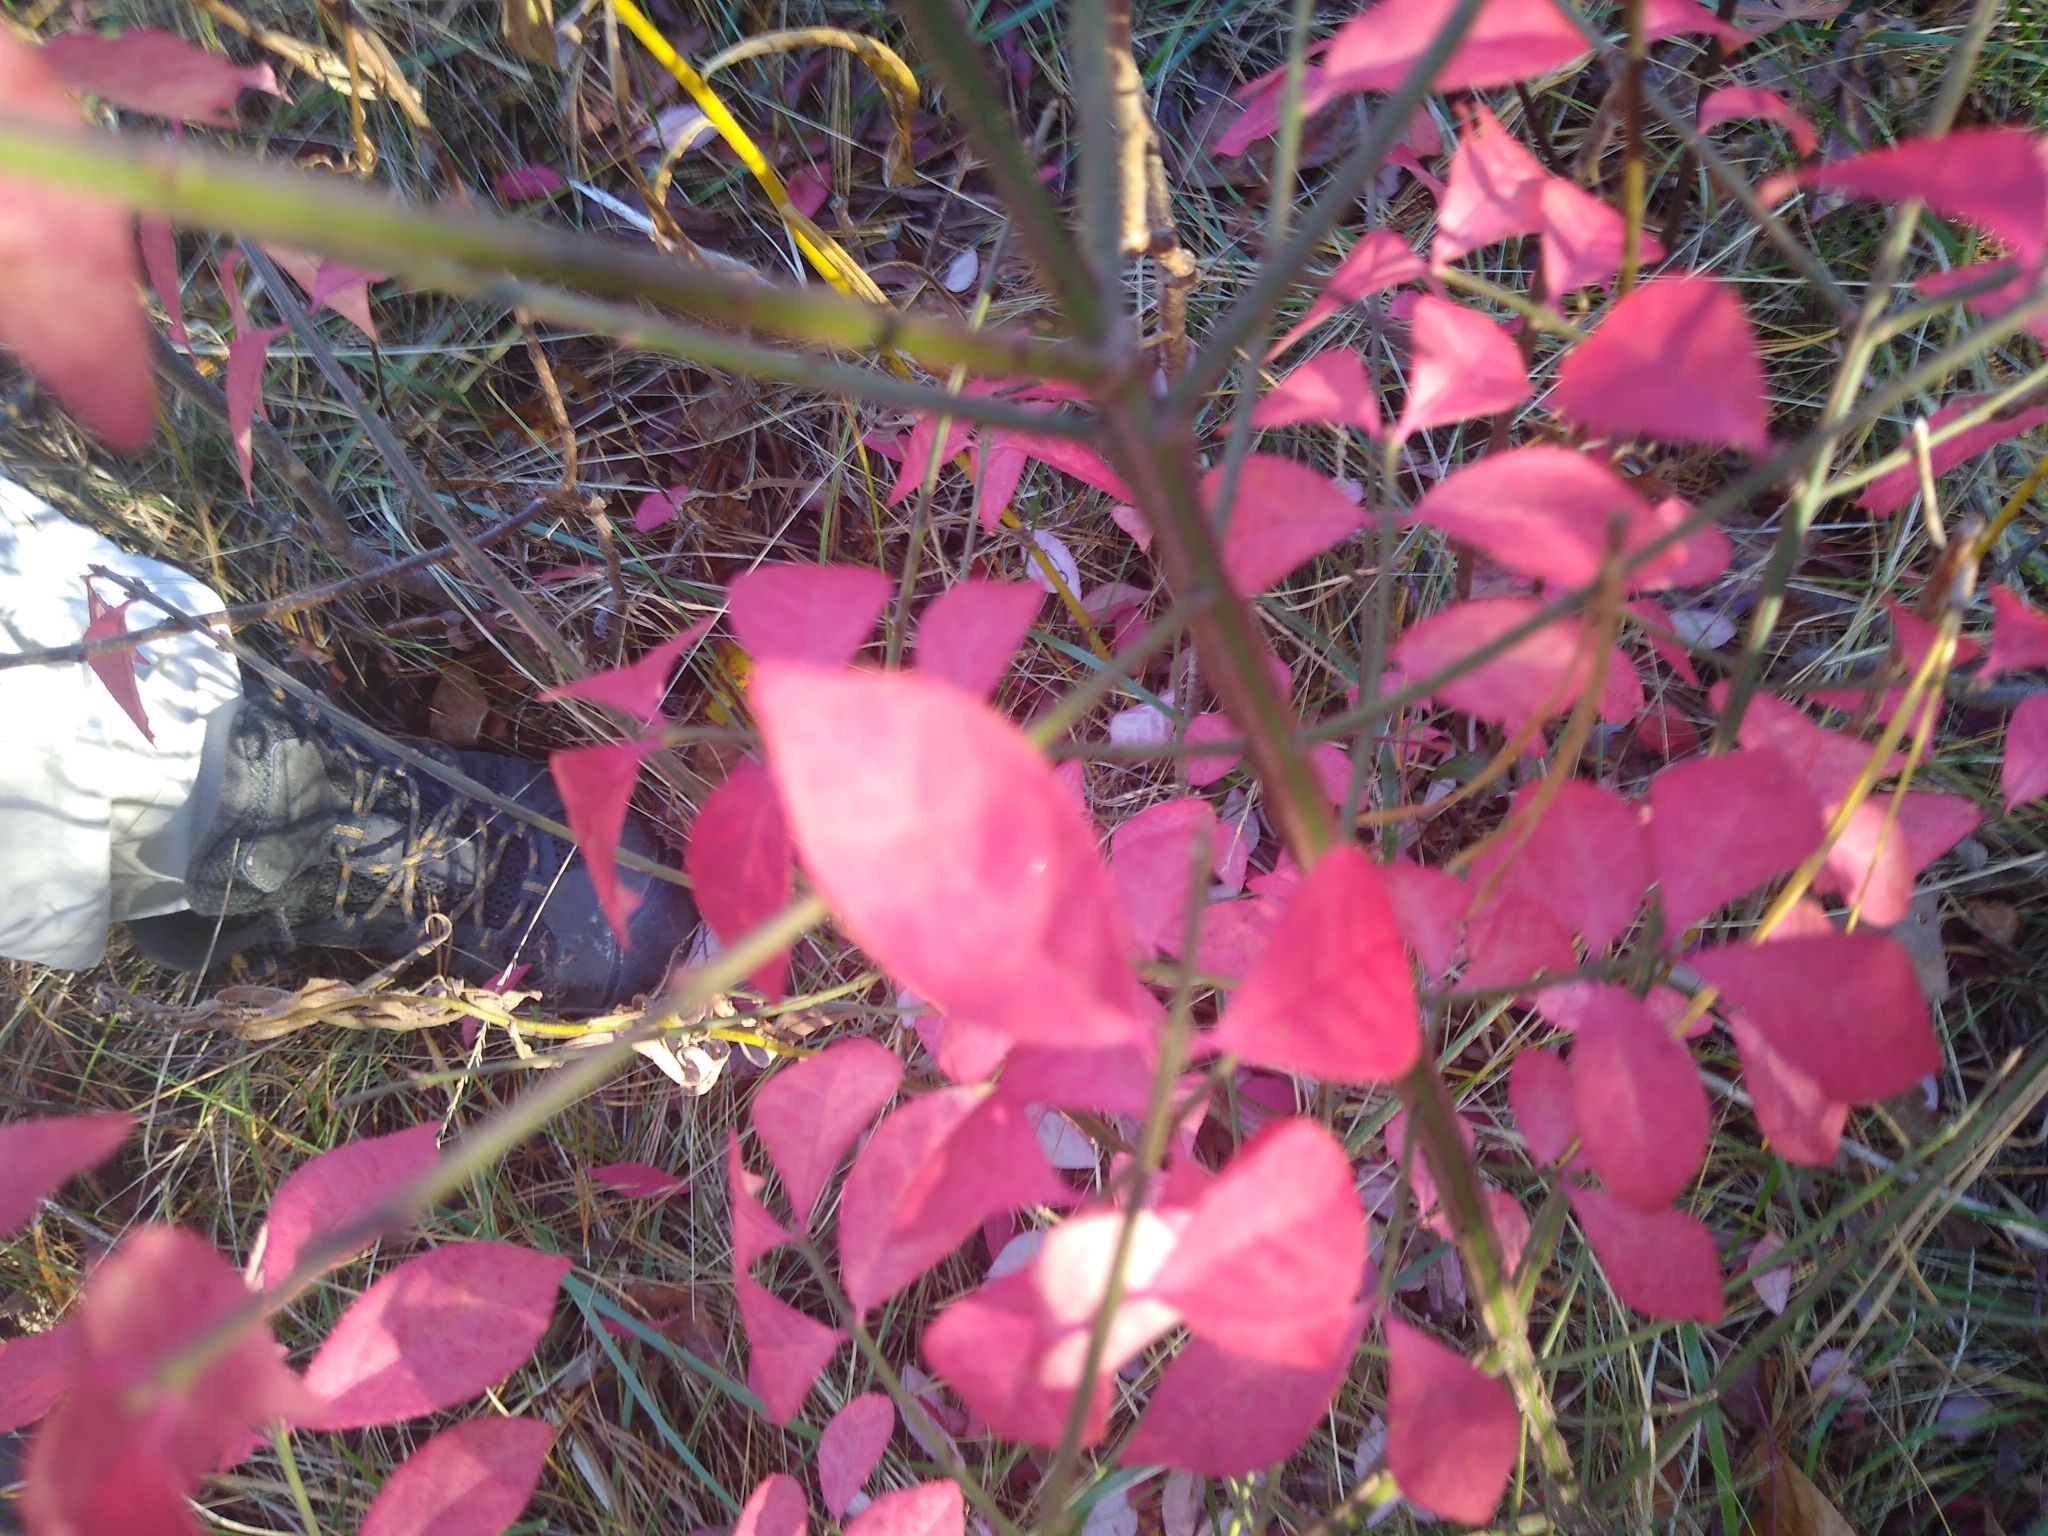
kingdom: Plantae
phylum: Tracheophyta
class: Magnoliopsida
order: Celastrales
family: Celastraceae
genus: Euonymus
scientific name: Euonymus alatus
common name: Winged euonymus
